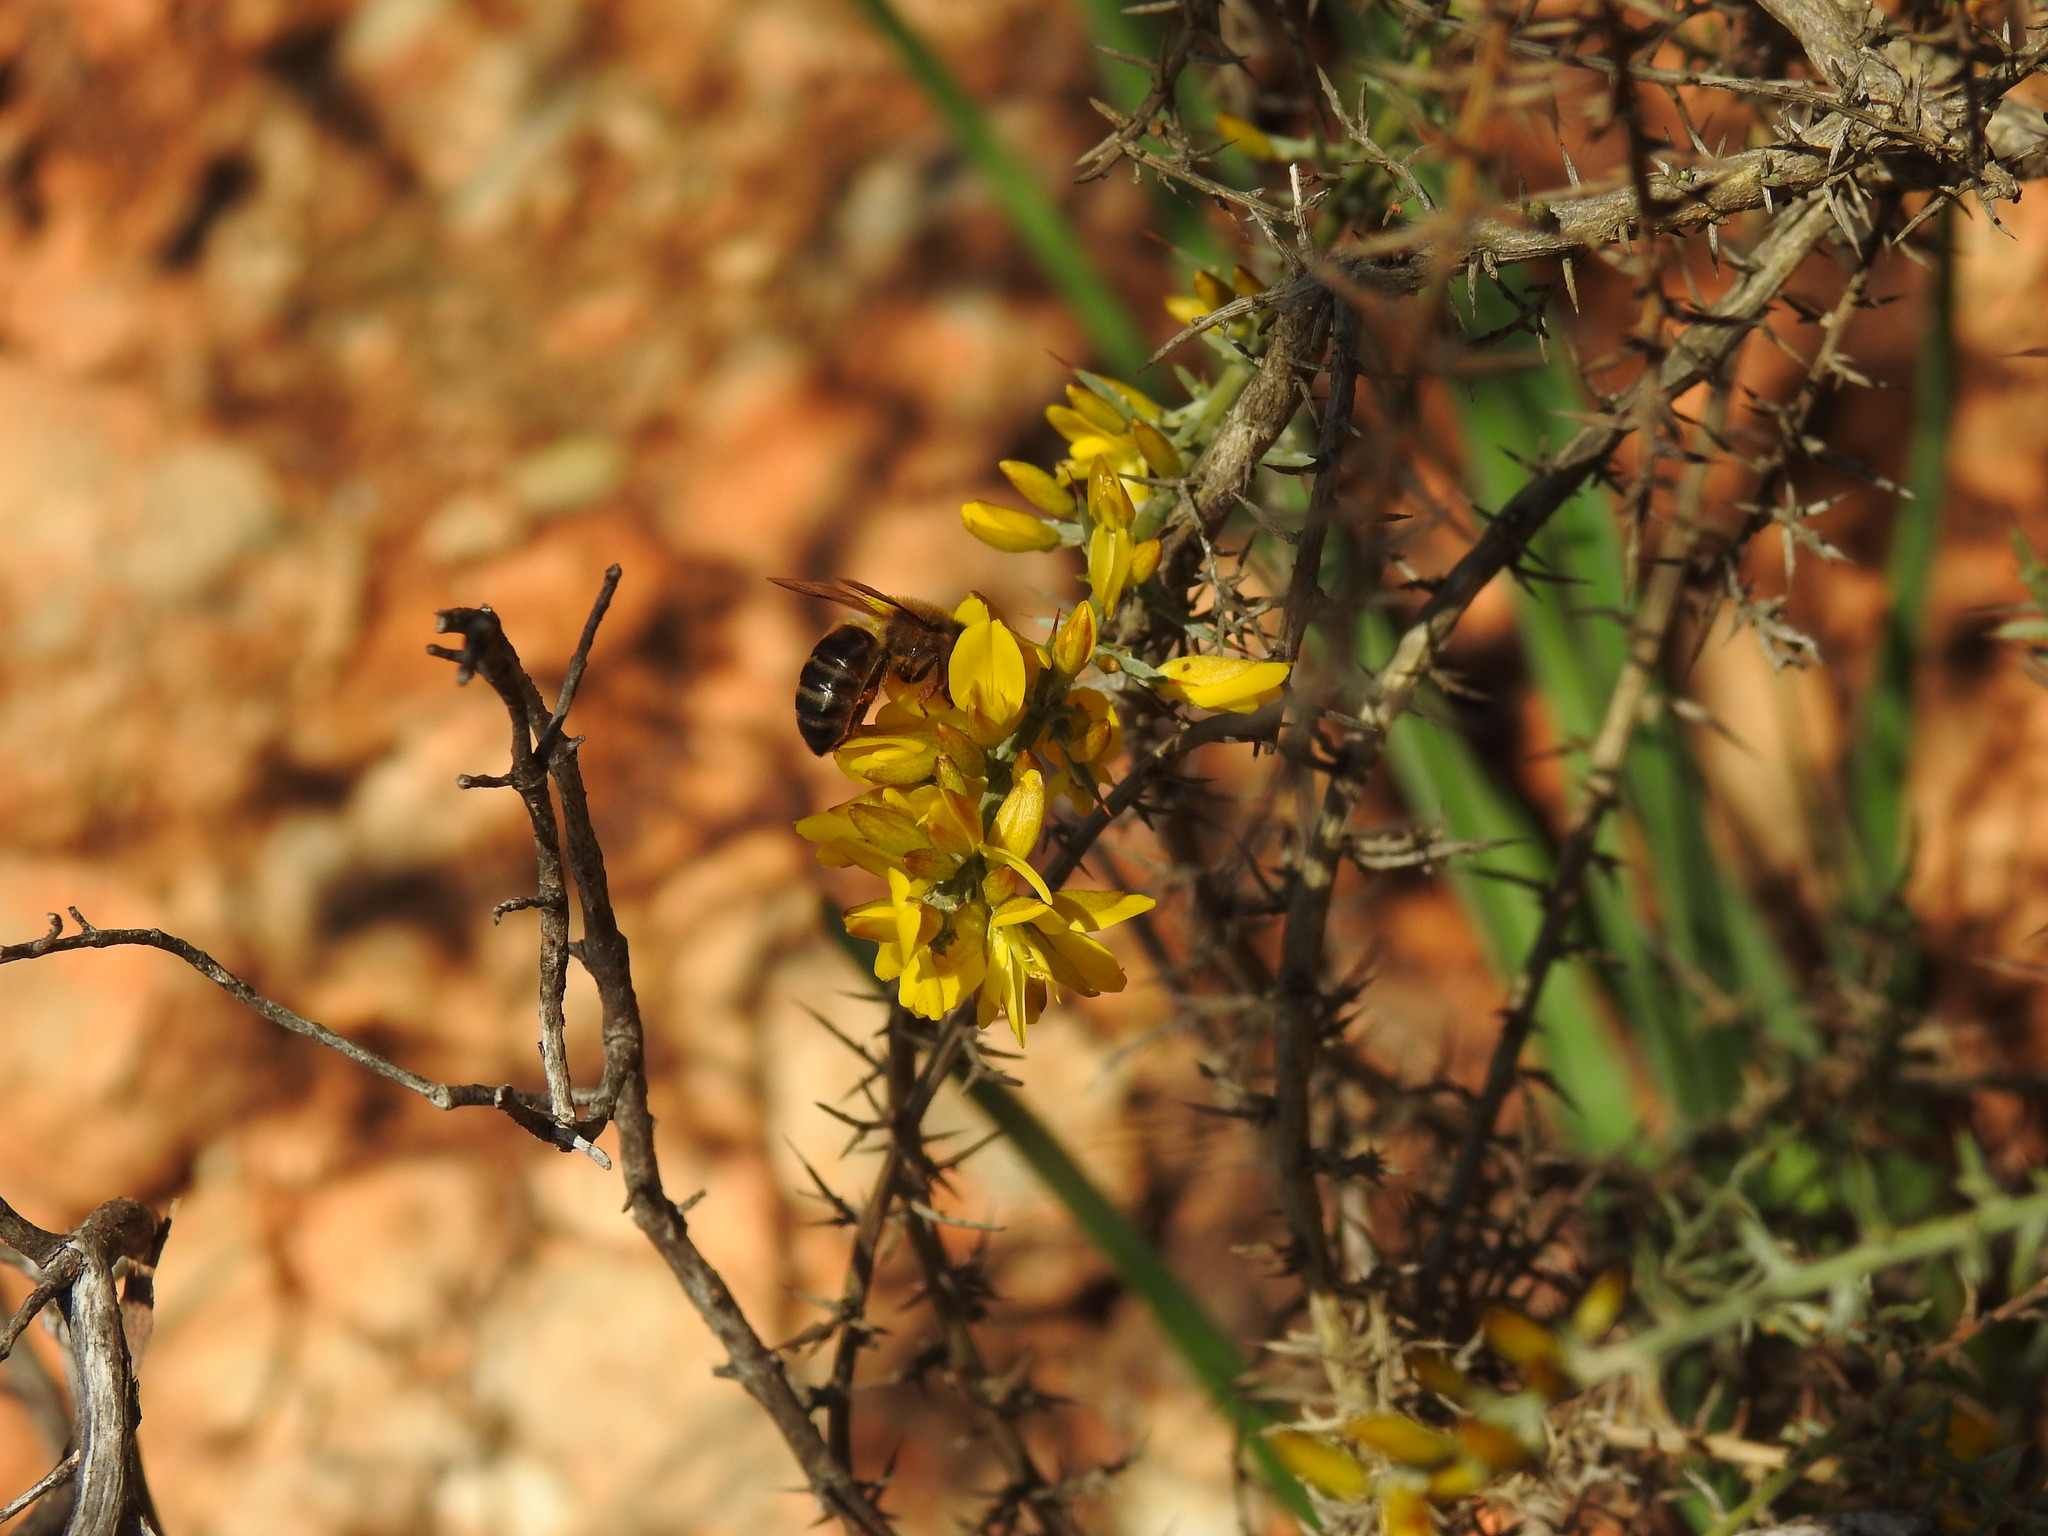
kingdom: Animalia
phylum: Arthropoda
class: Insecta
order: Hymenoptera
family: Apidae
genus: Apis
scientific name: Apis mellifera
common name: Honey bee
